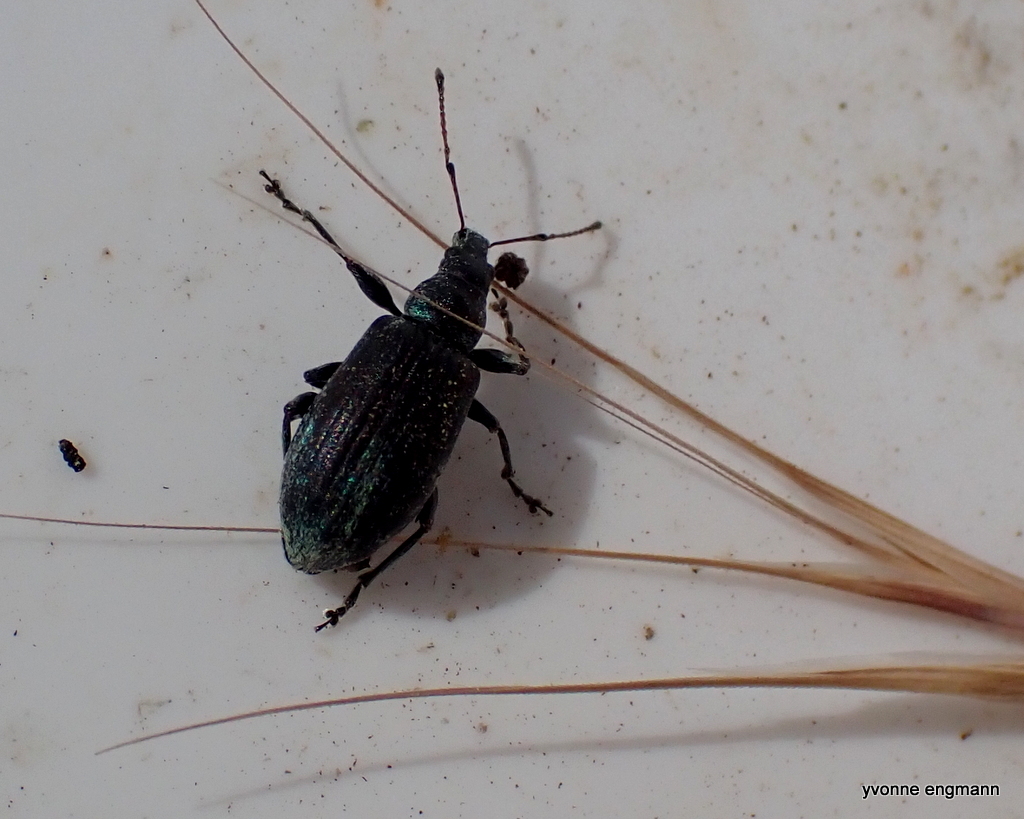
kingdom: Animalia
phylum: Arthropoda
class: Insecta
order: Coleoptera
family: Curculionidae
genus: Phyllobius
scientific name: Phyllobius pomaceus
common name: Green nettle weevil
